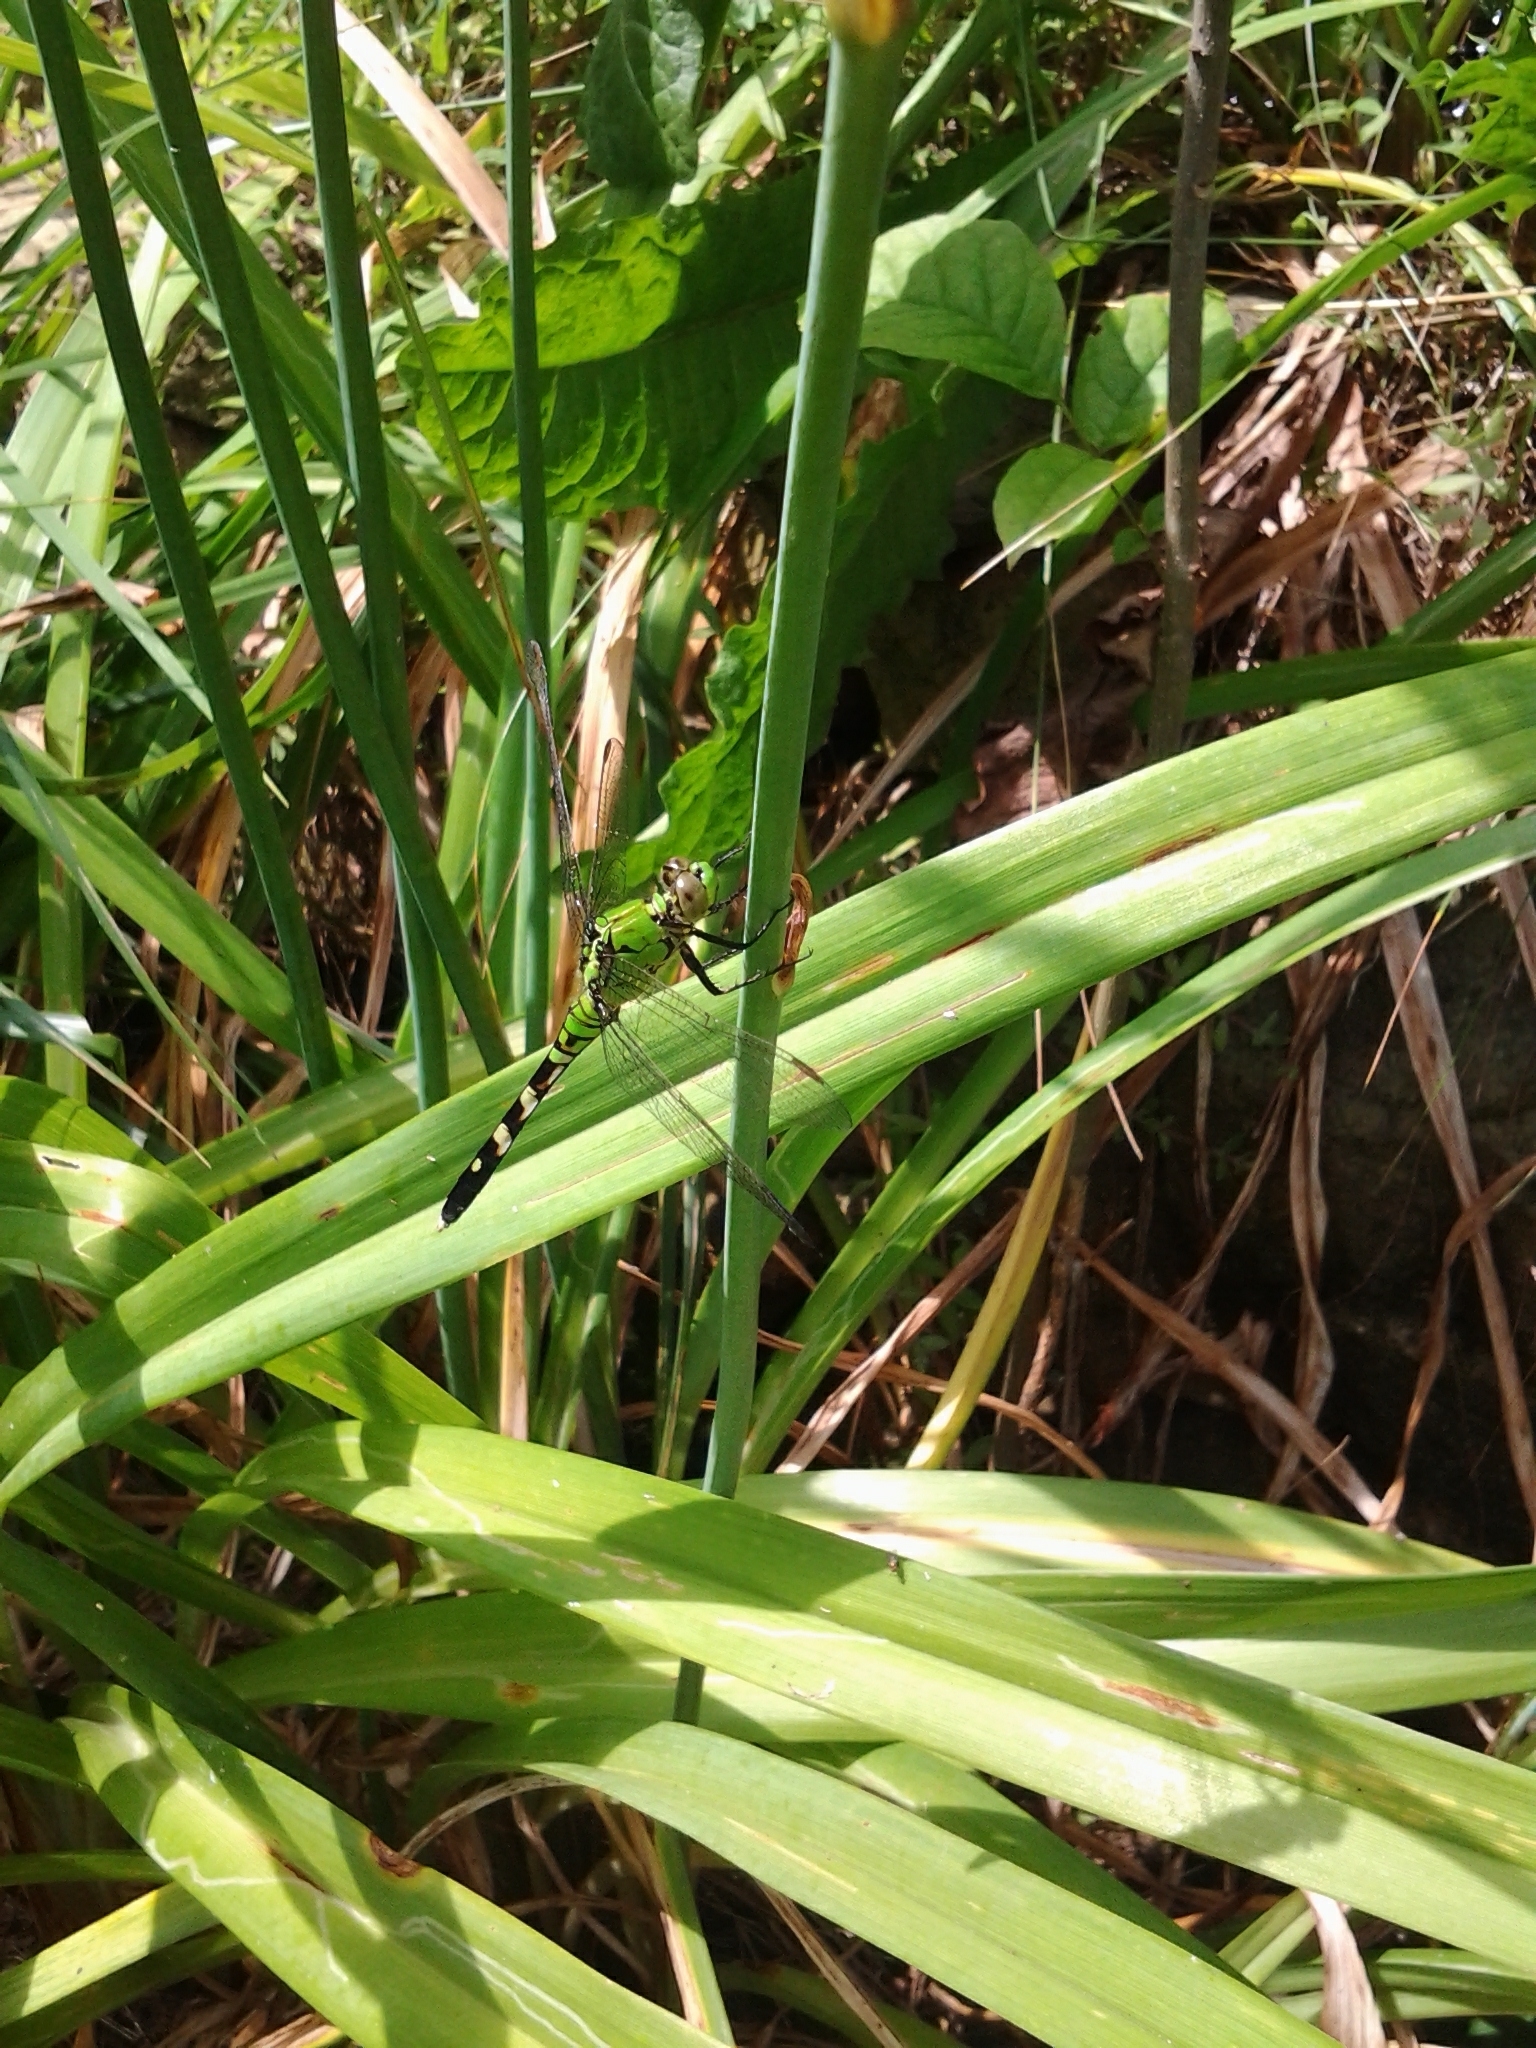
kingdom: Animalia
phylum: Arthropoda
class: Insecta
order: Odonata
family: Libellulidae
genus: Erythemis
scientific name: Erythemis simplicicollis
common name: Eastern pondhawk
